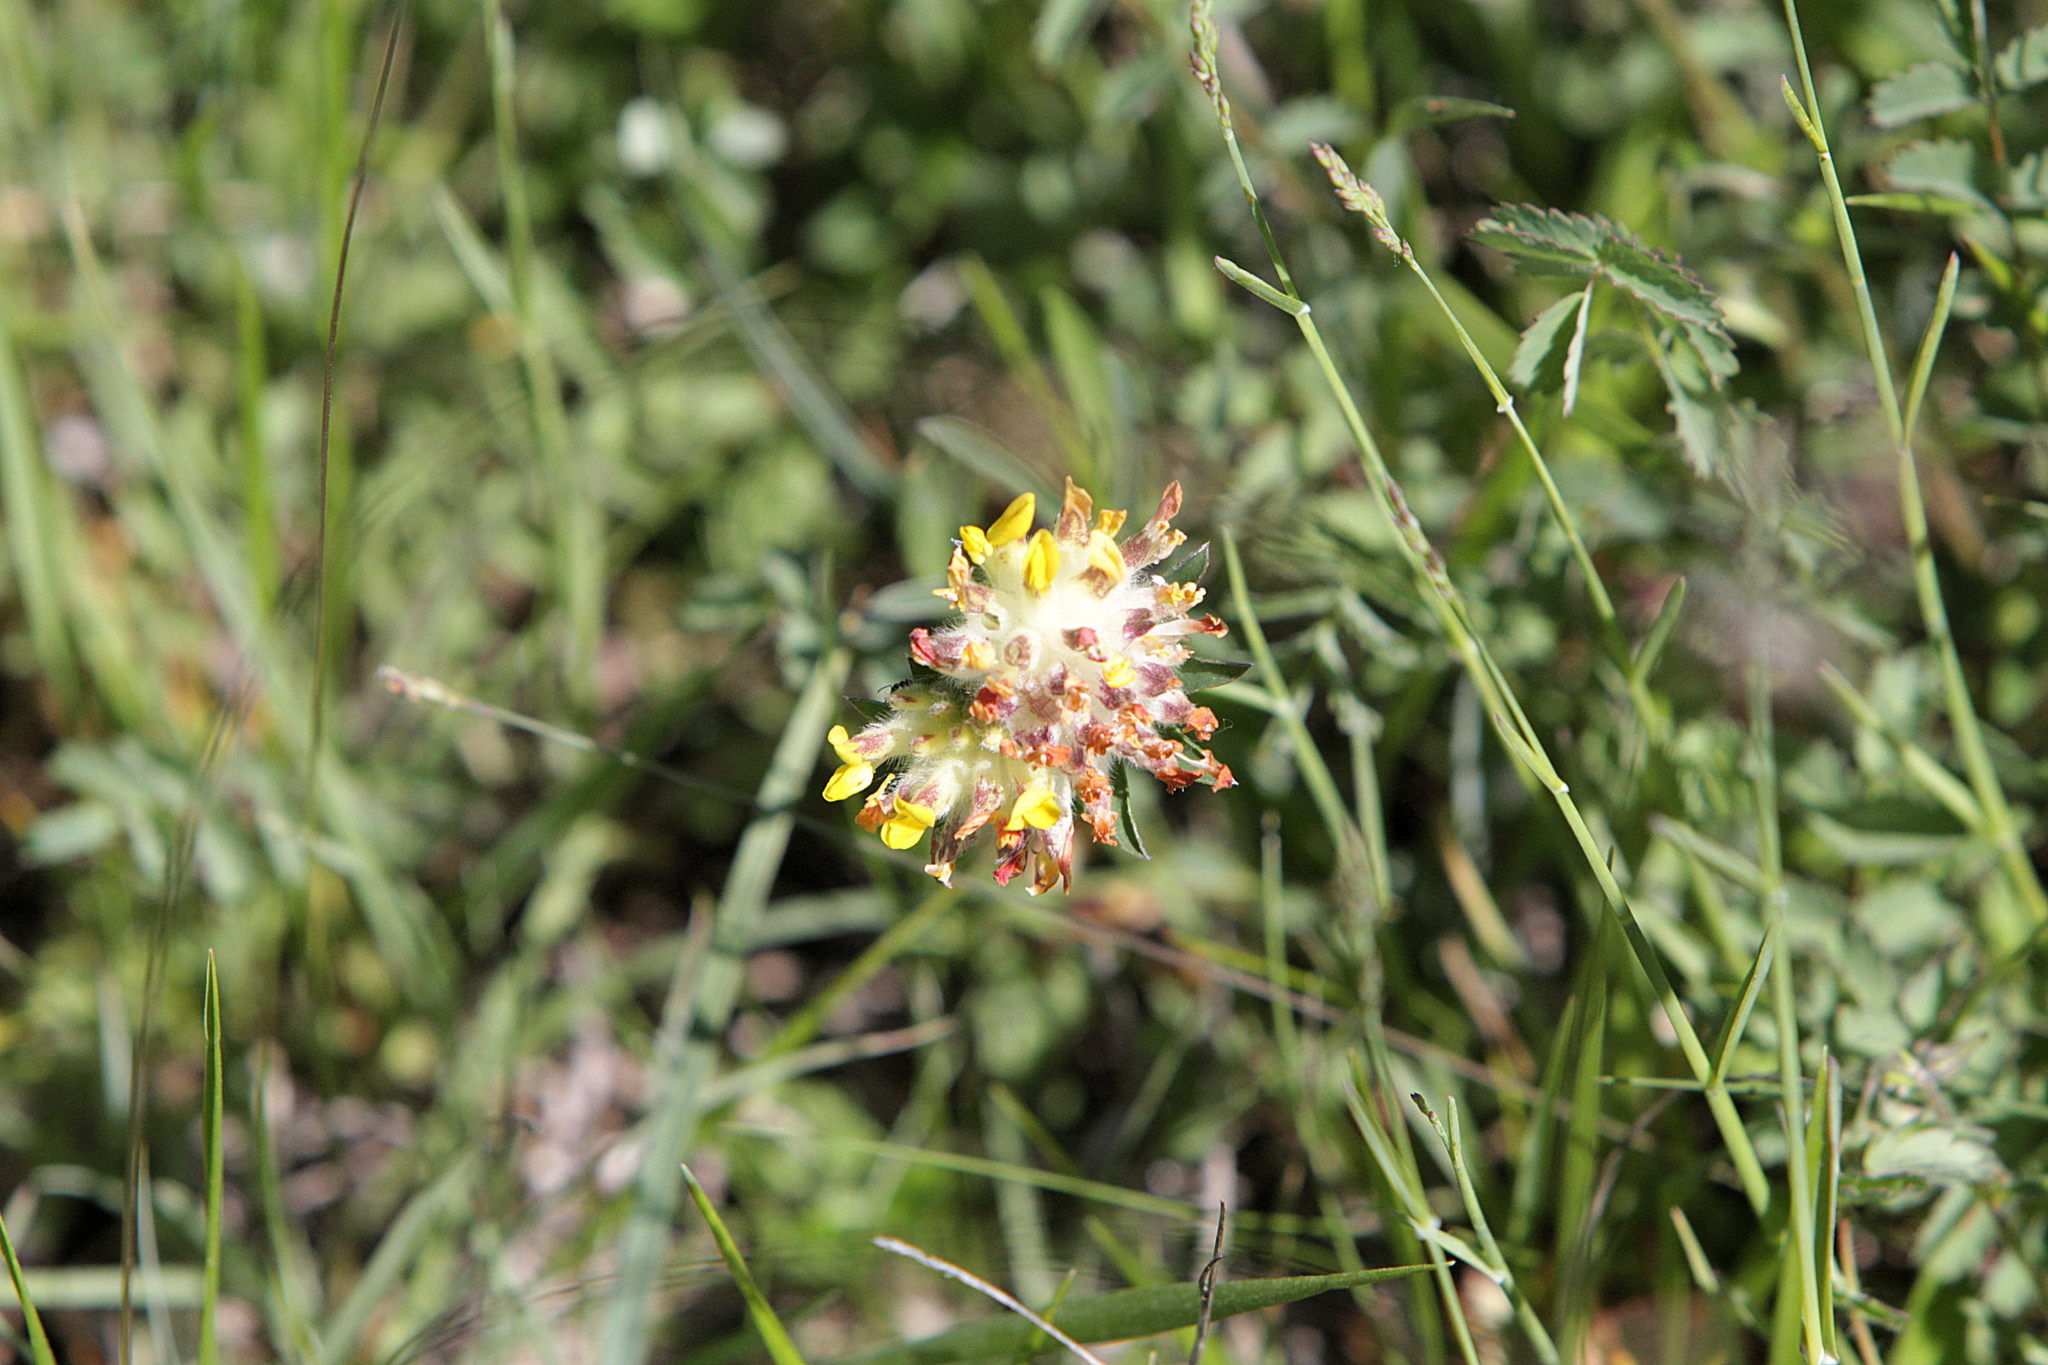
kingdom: Plantae
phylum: Tracheophyta
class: Magnoliopsida
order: Fabales
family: Fabaceae
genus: Anthyllis
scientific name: Anthyllis vulneraria
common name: Kidney vetch
